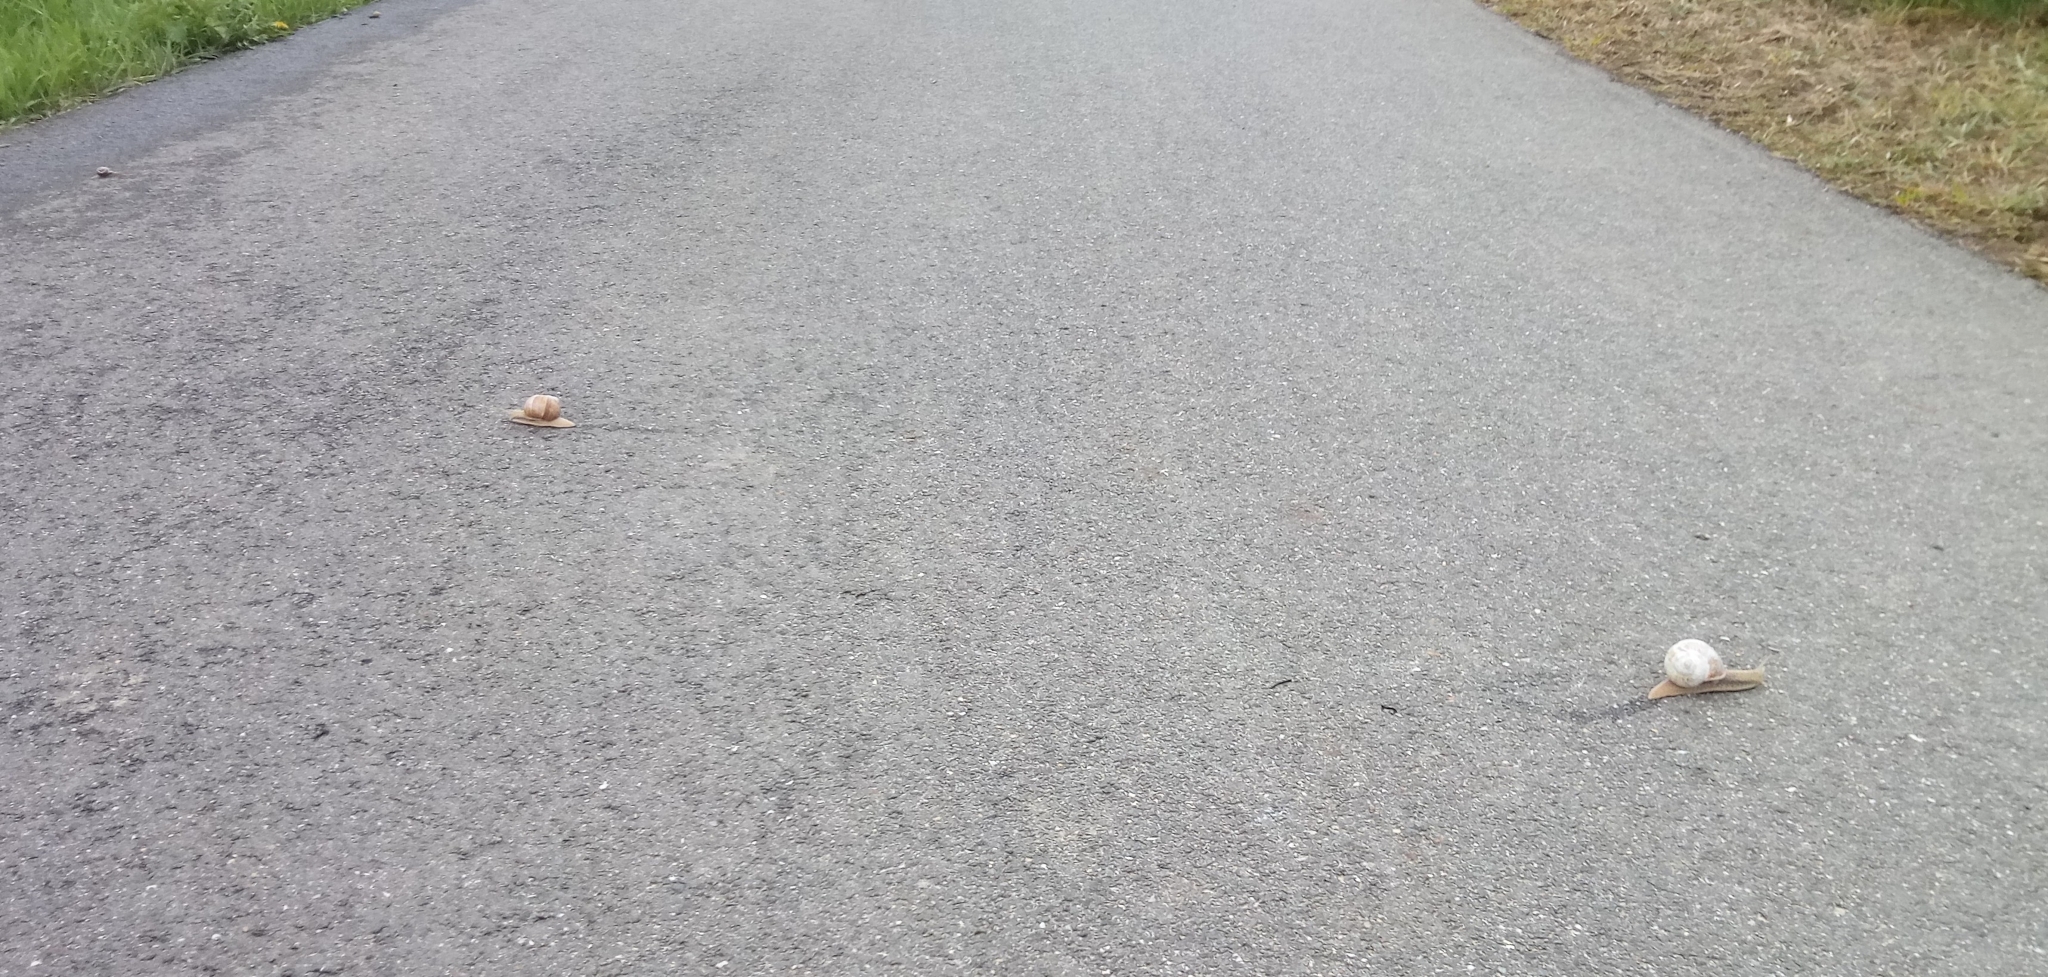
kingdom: Animalia
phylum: Mollusca
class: Gastropoda
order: Stylommatophora
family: Helicidae
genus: Helix
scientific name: Helix pomatia
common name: Roman snail
